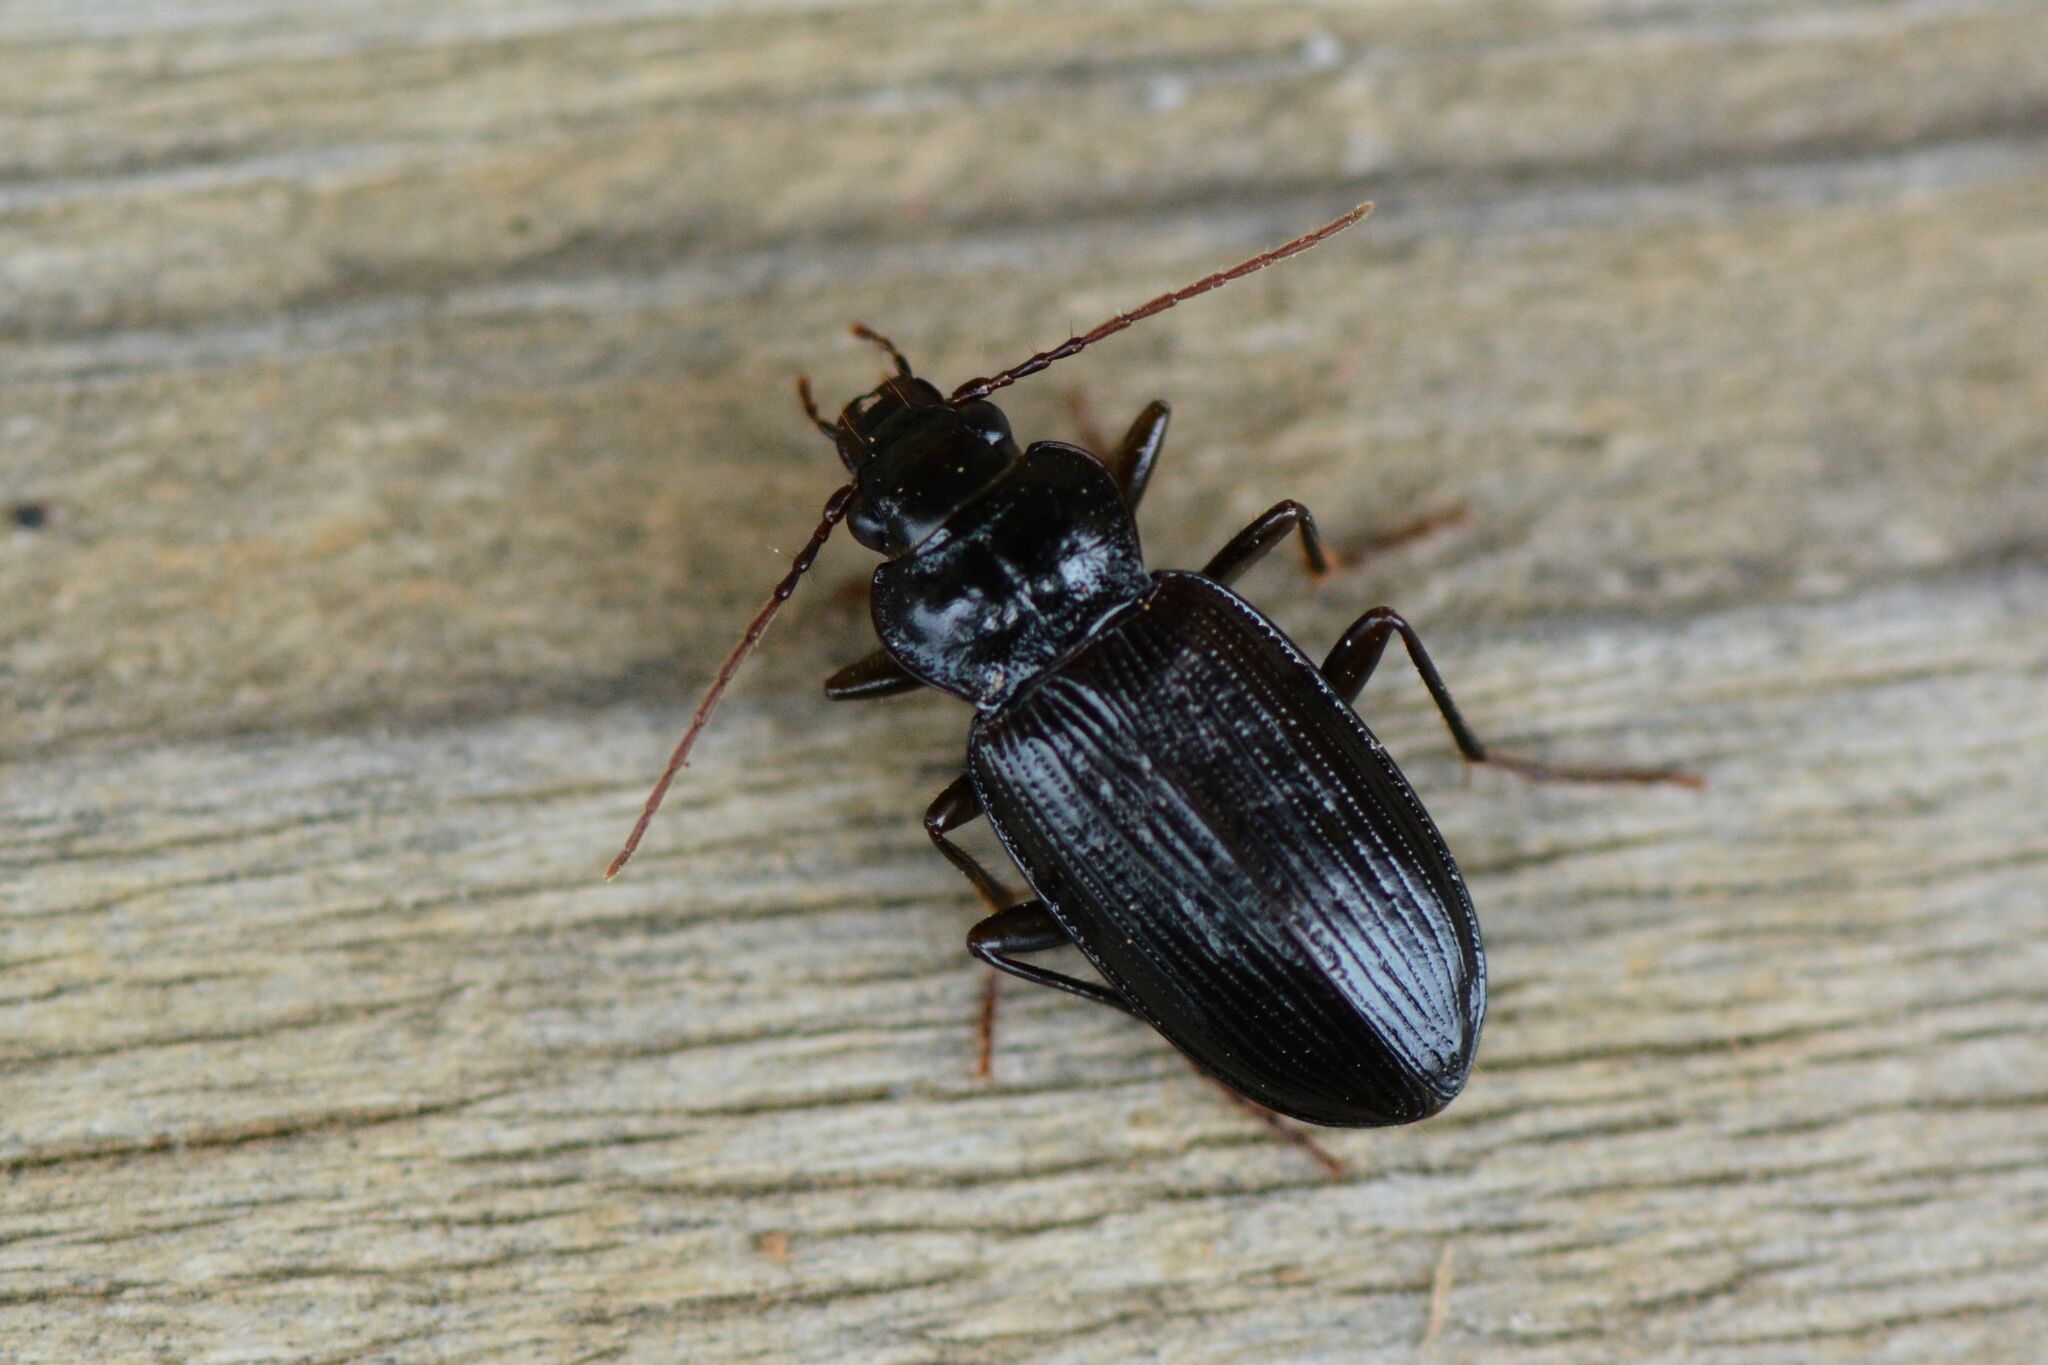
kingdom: Animalia
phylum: Arthropoda
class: Insecta
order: Coleoptera
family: Carabidae
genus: Nebria
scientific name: Nebria salina
